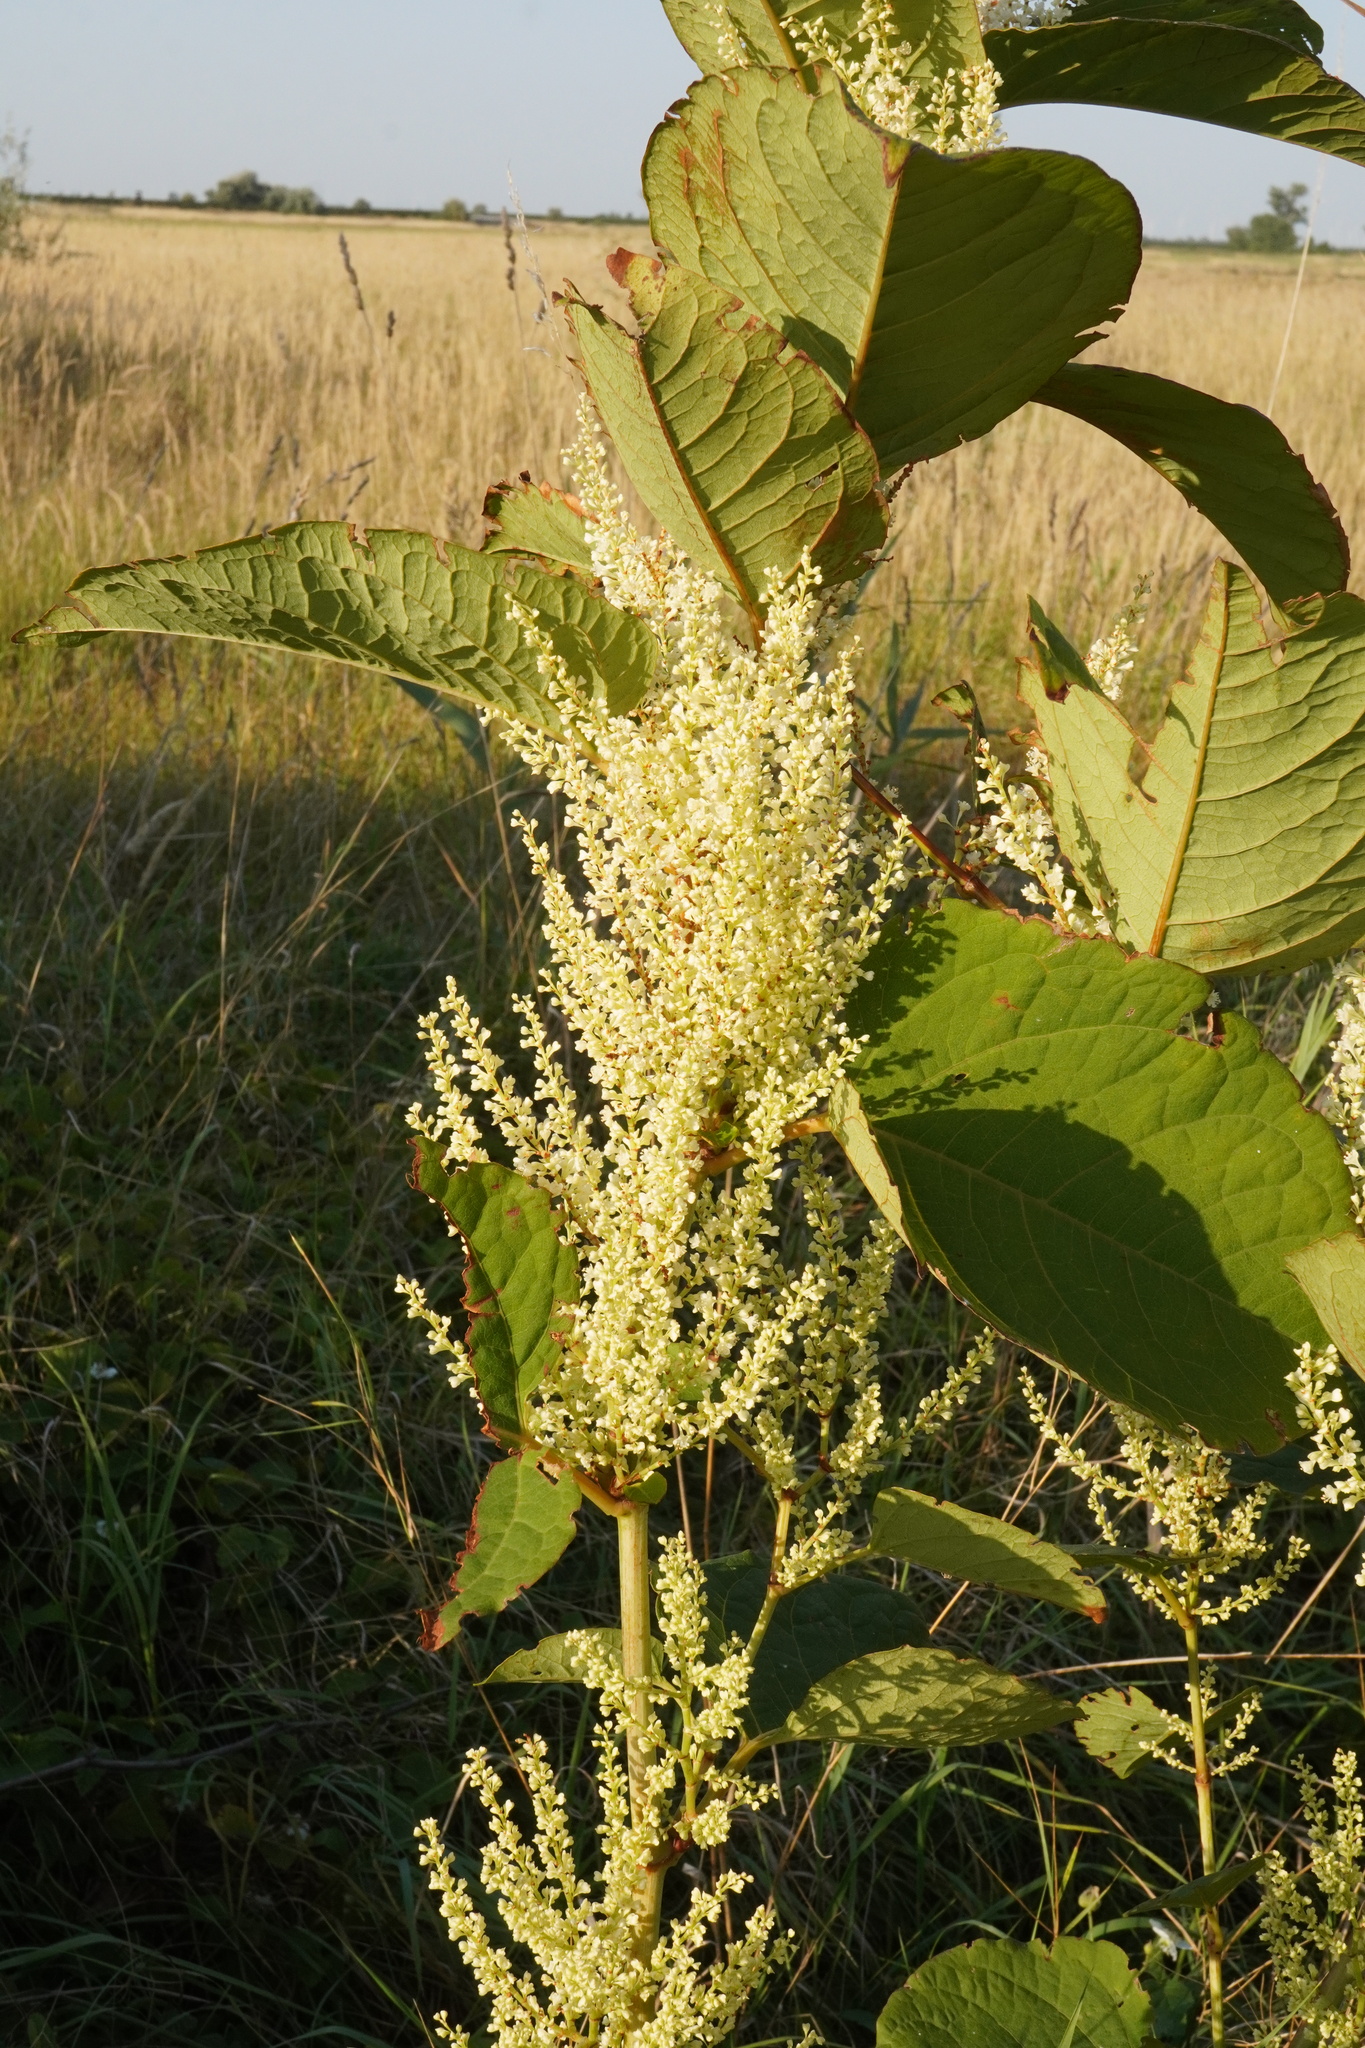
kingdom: Plantae
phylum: Tracheophyta
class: Magnoliopsida
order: Caryophyllales
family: Polygonaceae
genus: Reynoutria
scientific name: Reynoutria bohemica
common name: Bohemian knotweed
